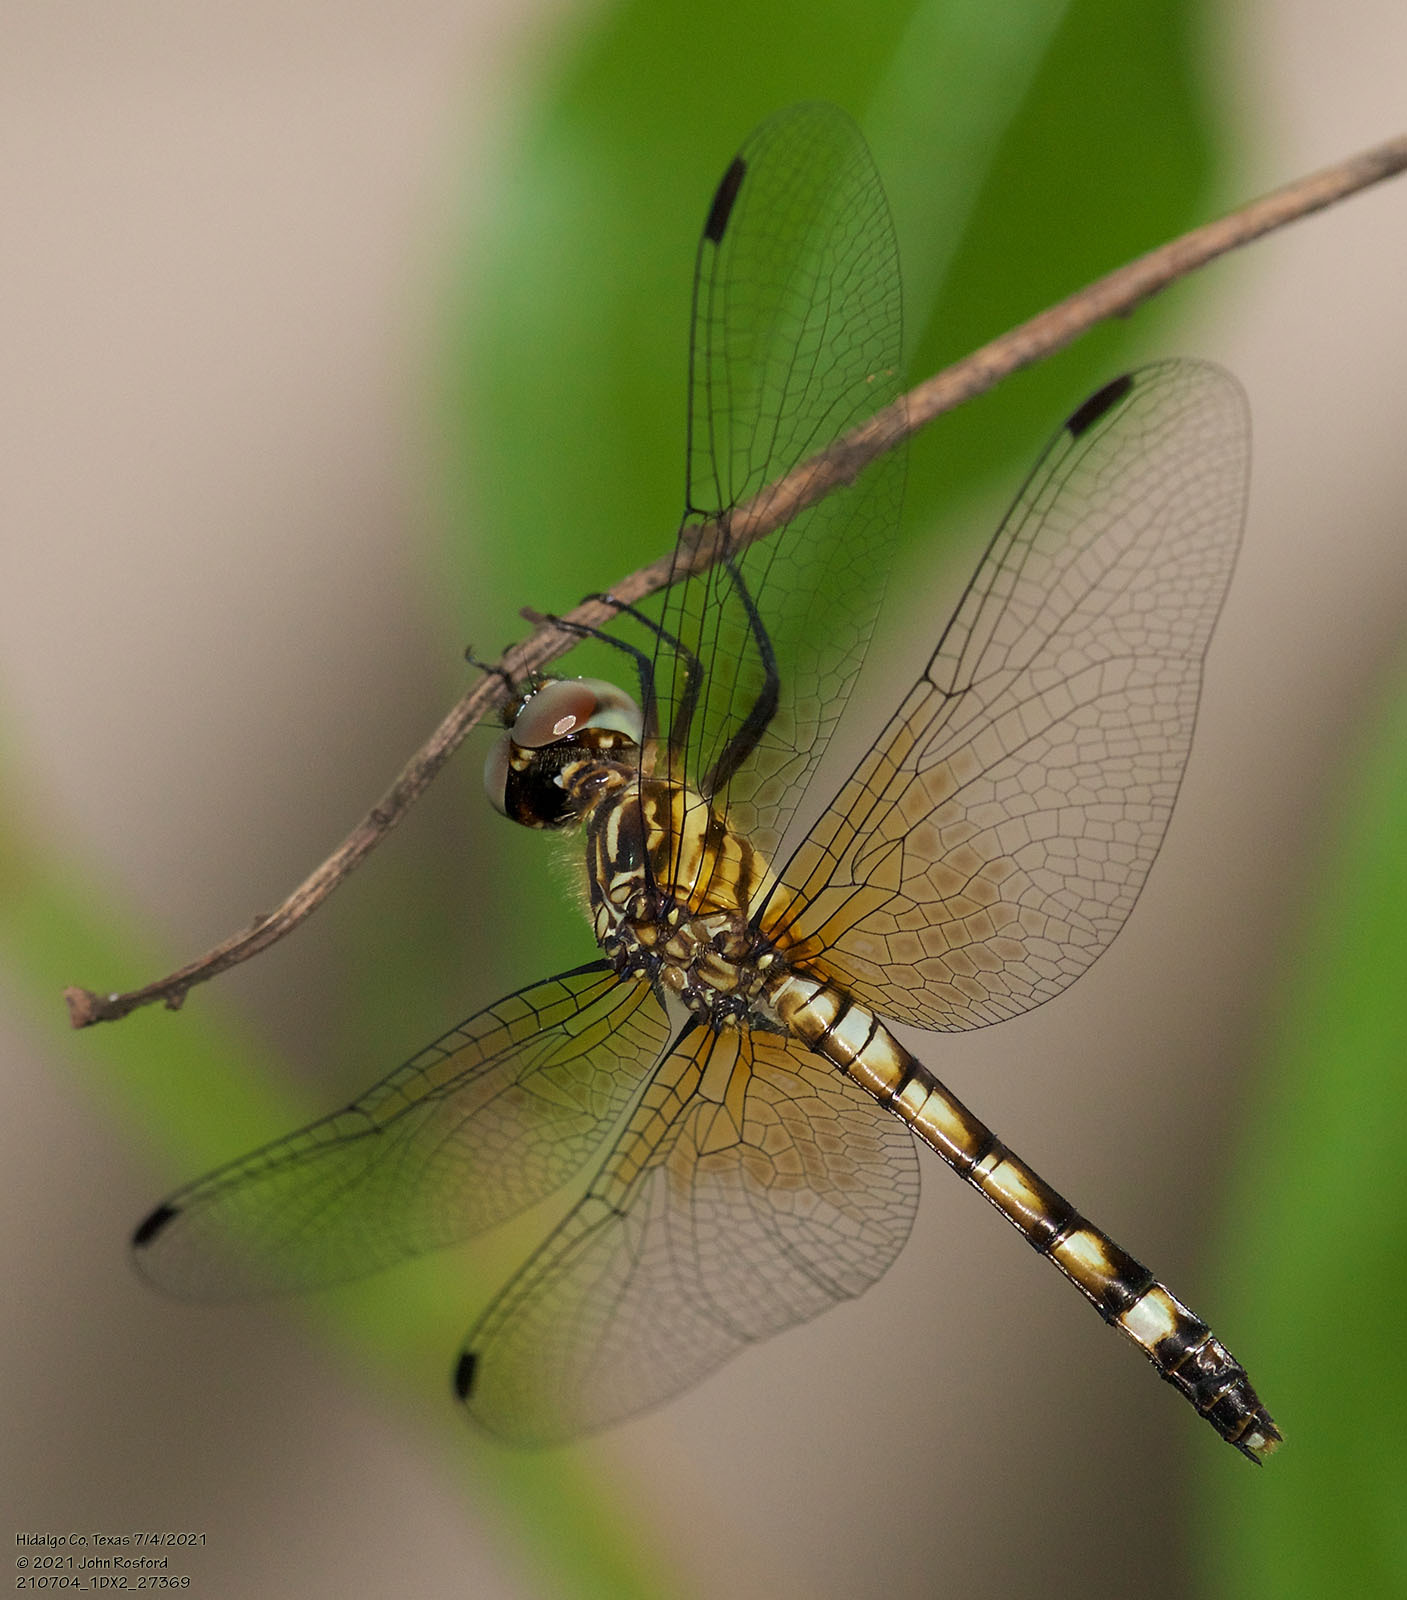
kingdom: Animalia
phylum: Arthropoda
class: Insecta
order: Odonata
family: Libellulidae
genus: Micrathyria
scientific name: Micrathyria hagenii
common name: Thornbush dasher
